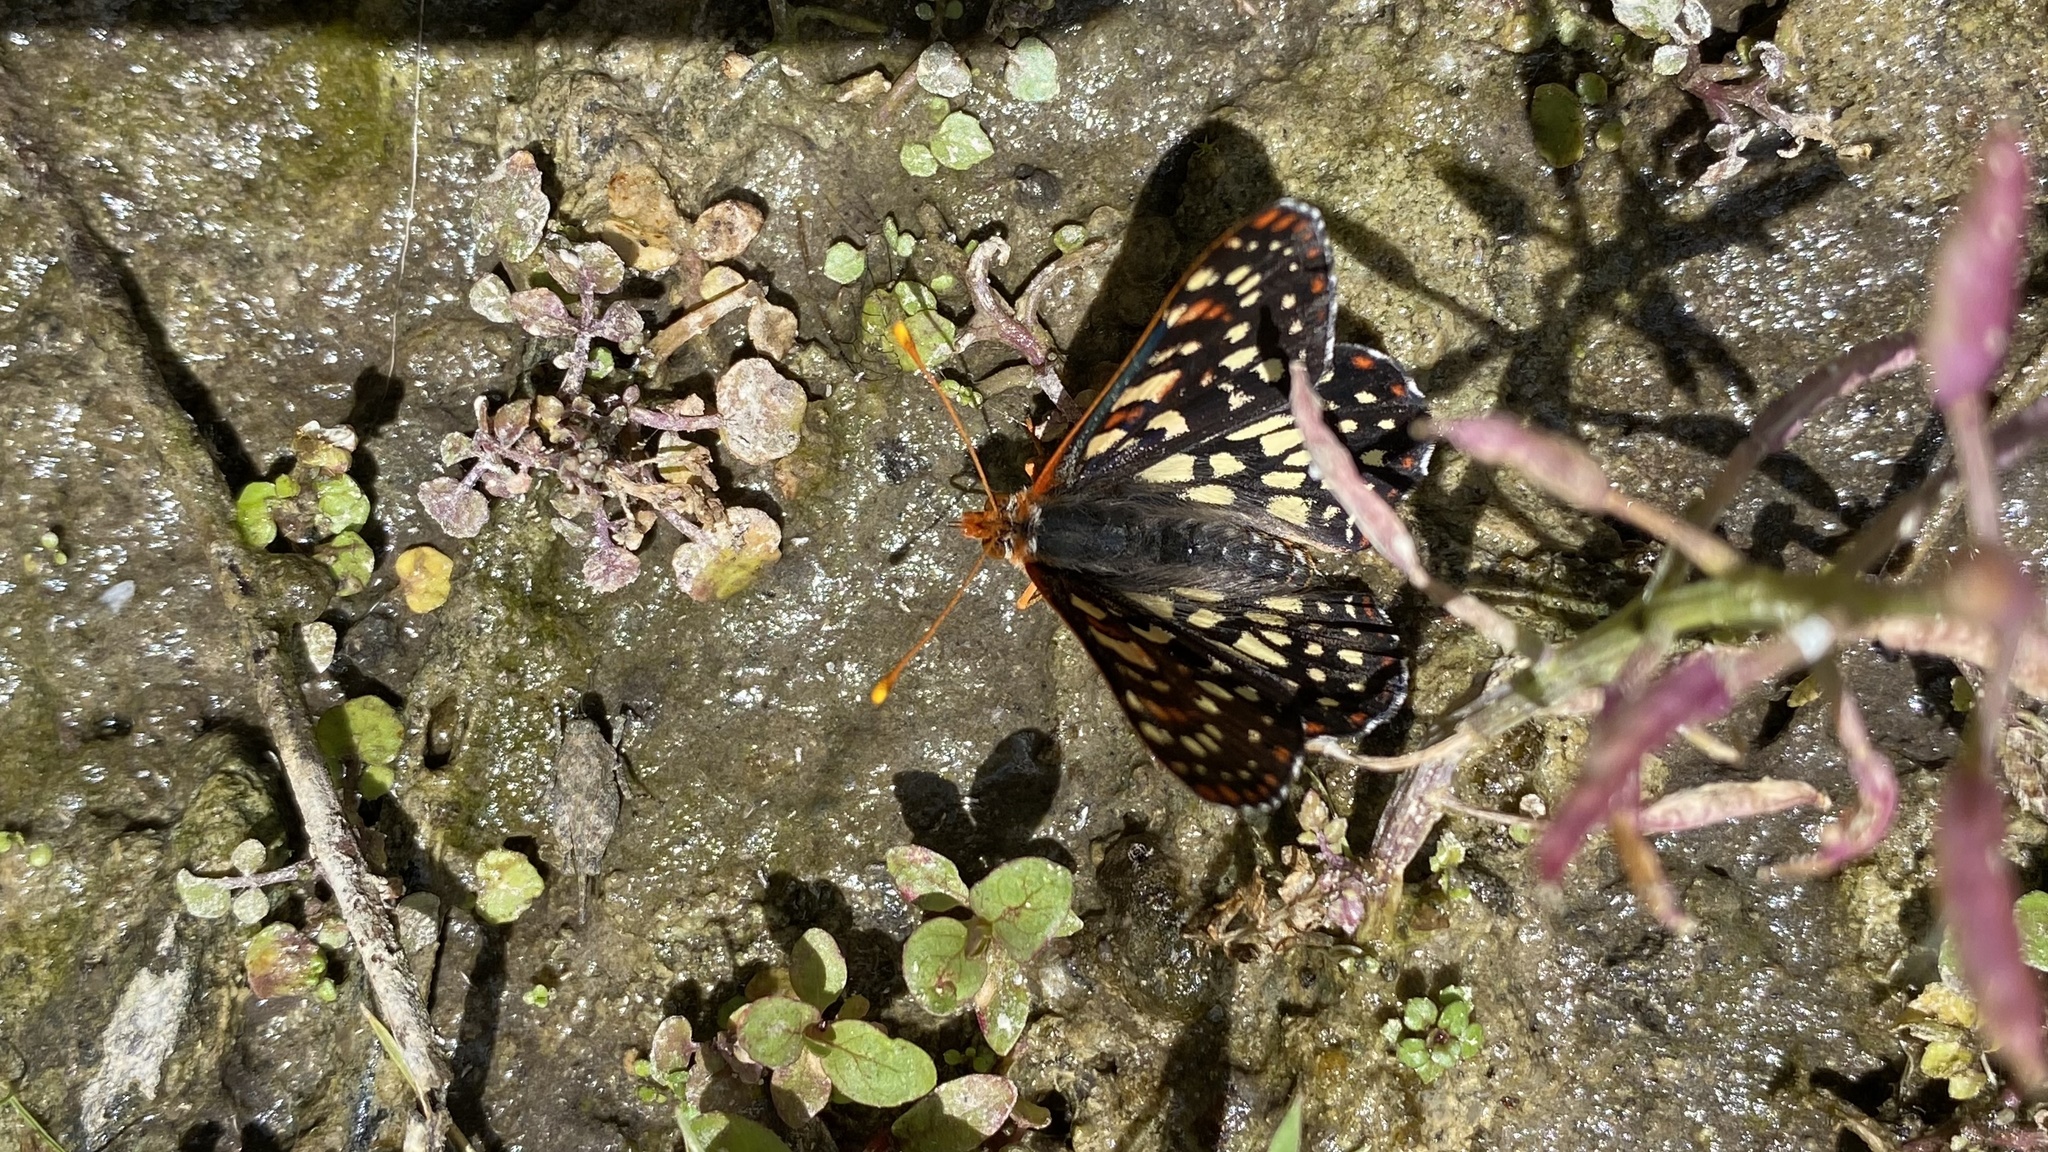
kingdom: Animalia
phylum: Arthropoda
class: Insecta
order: Lepidoptera
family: Nymphalidae
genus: Occidryas
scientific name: Occidryas chalcedona
